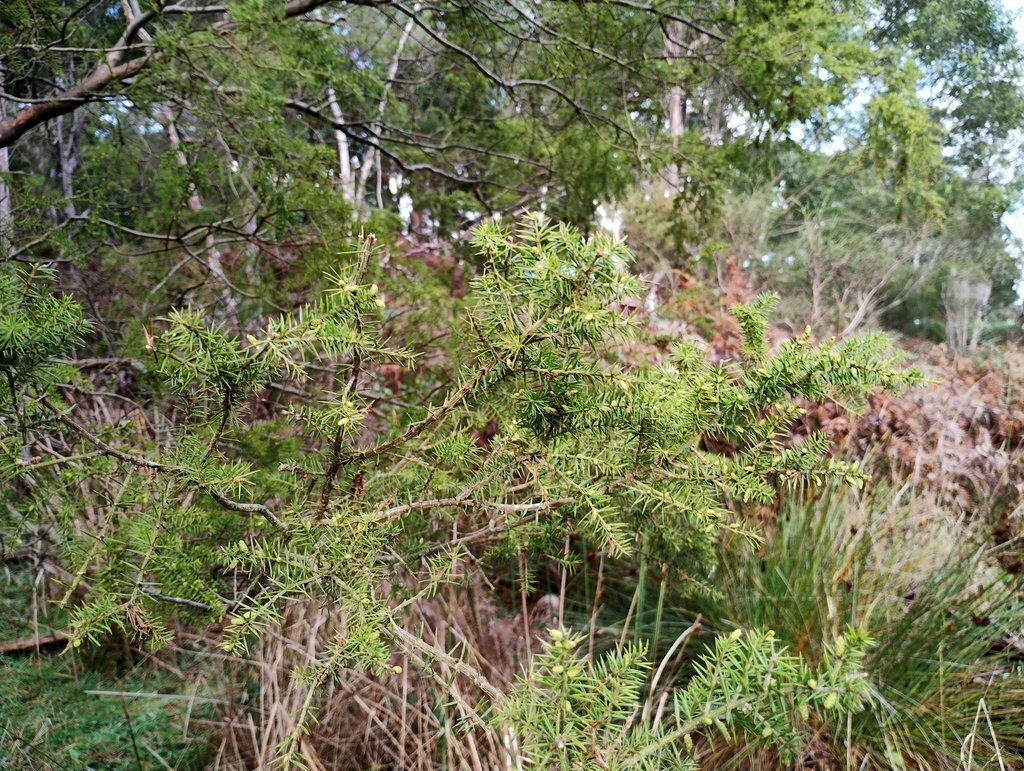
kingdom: Plantae
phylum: Tracheophyta
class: Magnoliopsida
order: Fabales
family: Fabaceae
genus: Acacia
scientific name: Acacia verticillata
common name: Prickly moses
